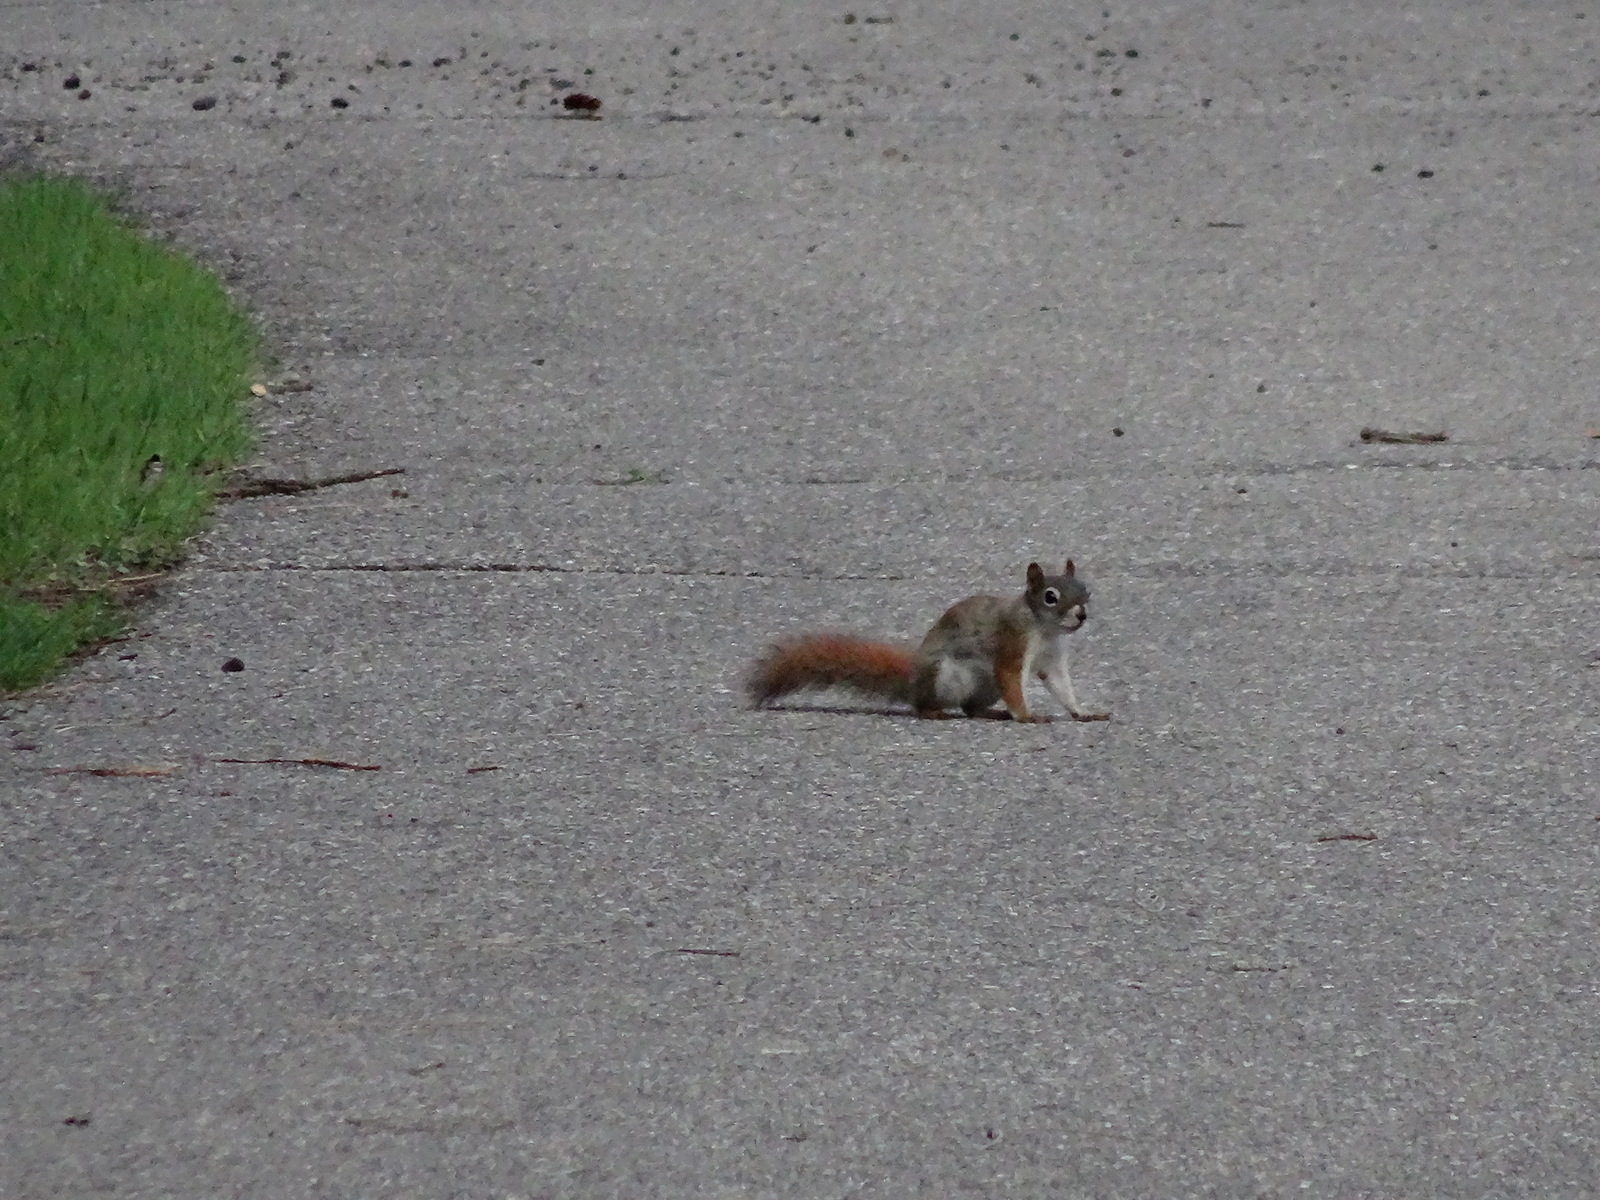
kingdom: Animalia
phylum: Chordata
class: Mammalia
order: Rodentia
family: Sciuridae
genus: Tamiasciurus
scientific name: Tamiasciurus hudsonicus
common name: Red squirrel
